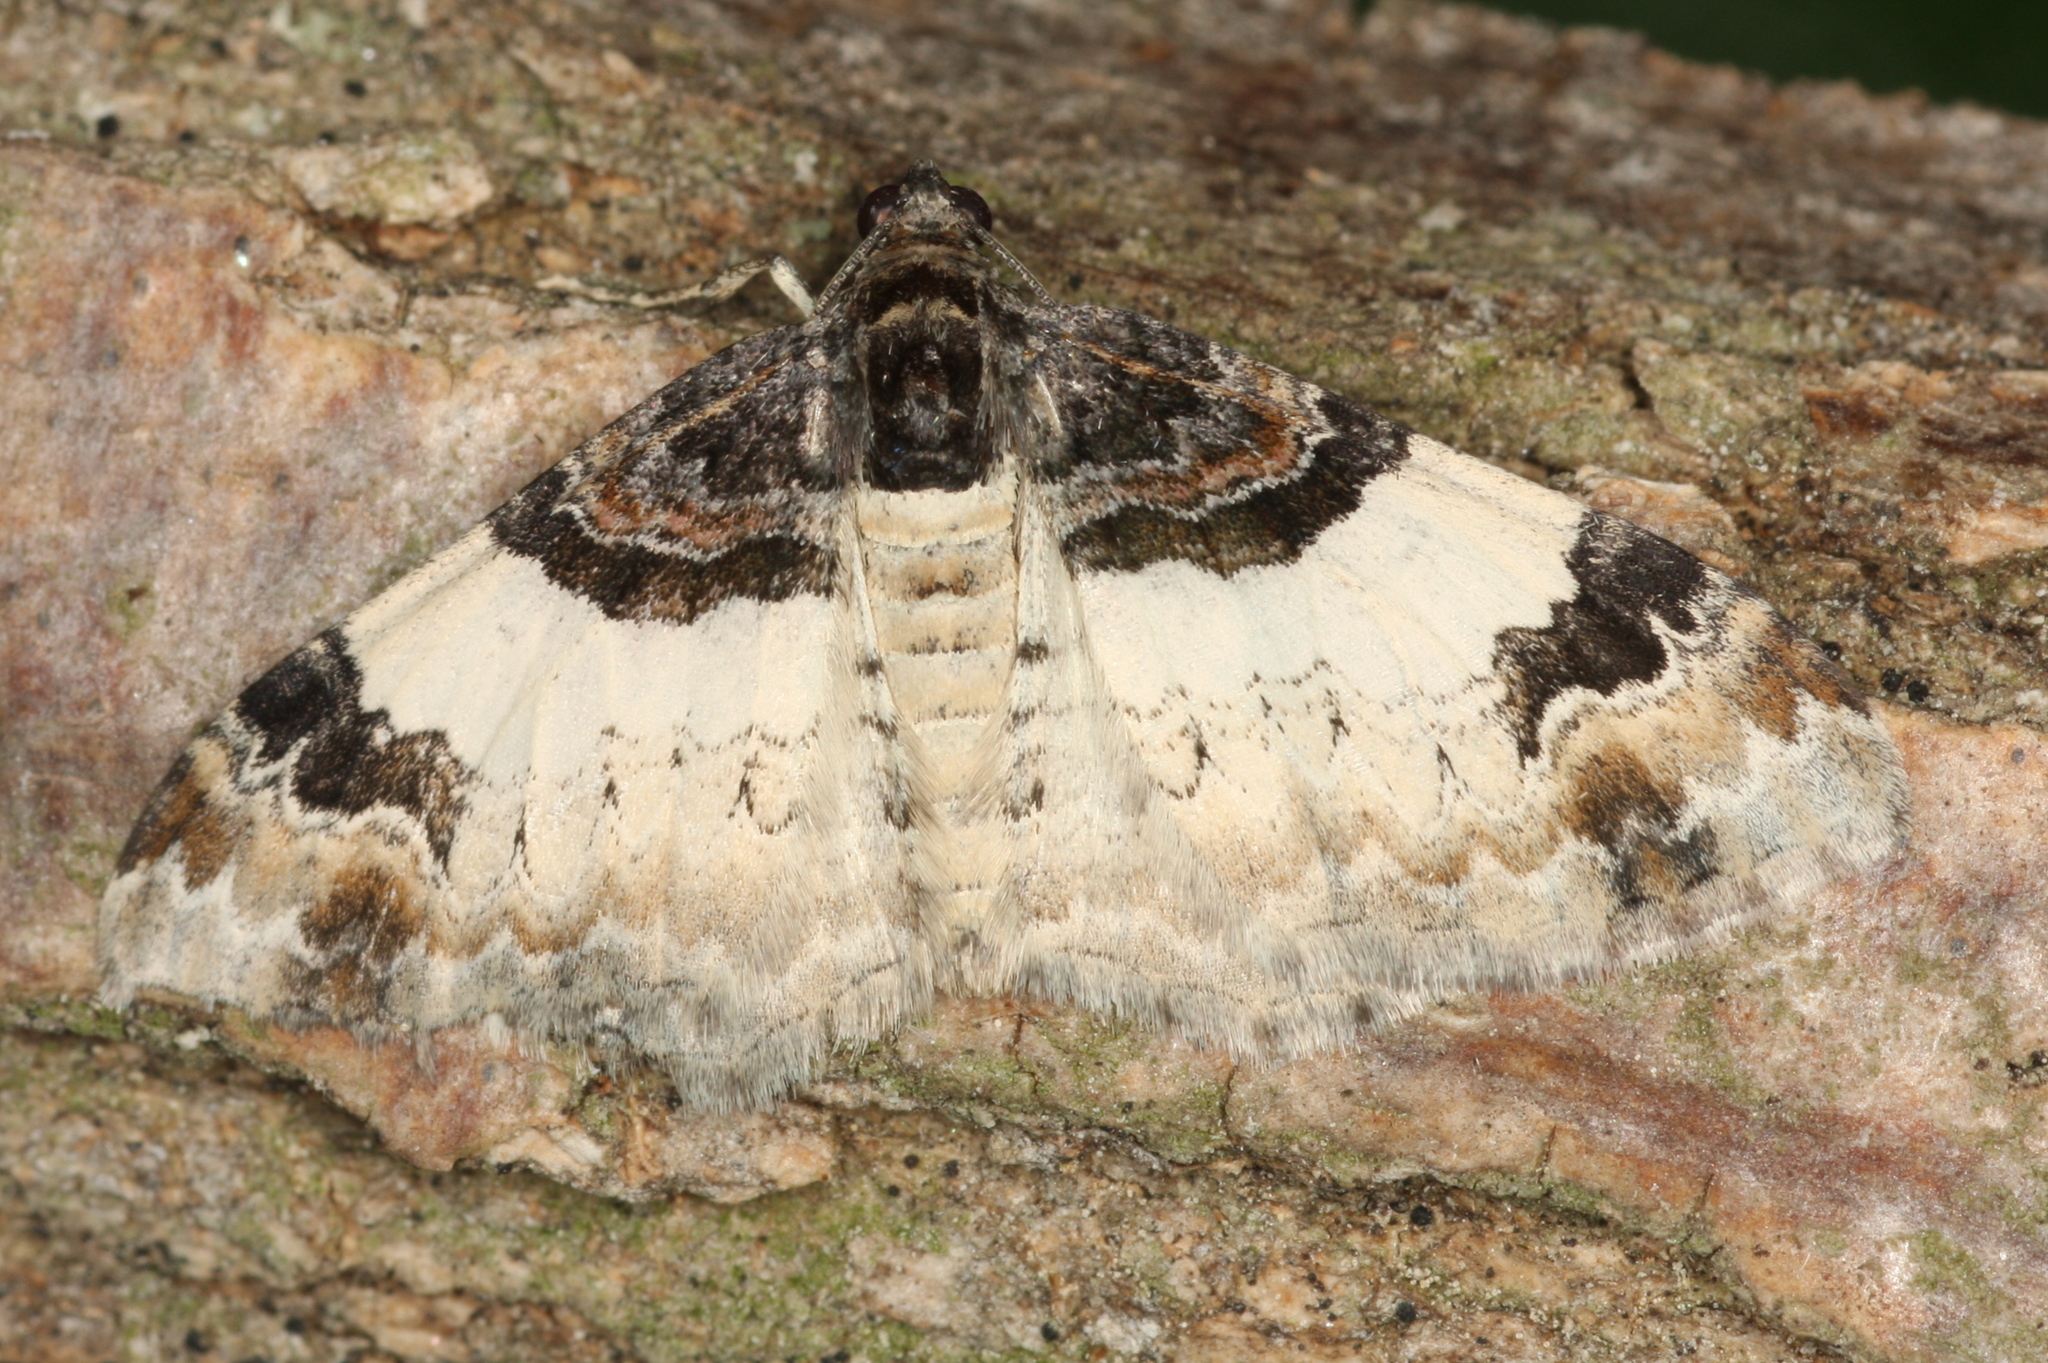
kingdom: Animalia
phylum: Arthropoda
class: Insecta
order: Lepidoptera
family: Geometridae
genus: Catarhoe
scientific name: Catarhoe cuculata
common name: Royal mantle
